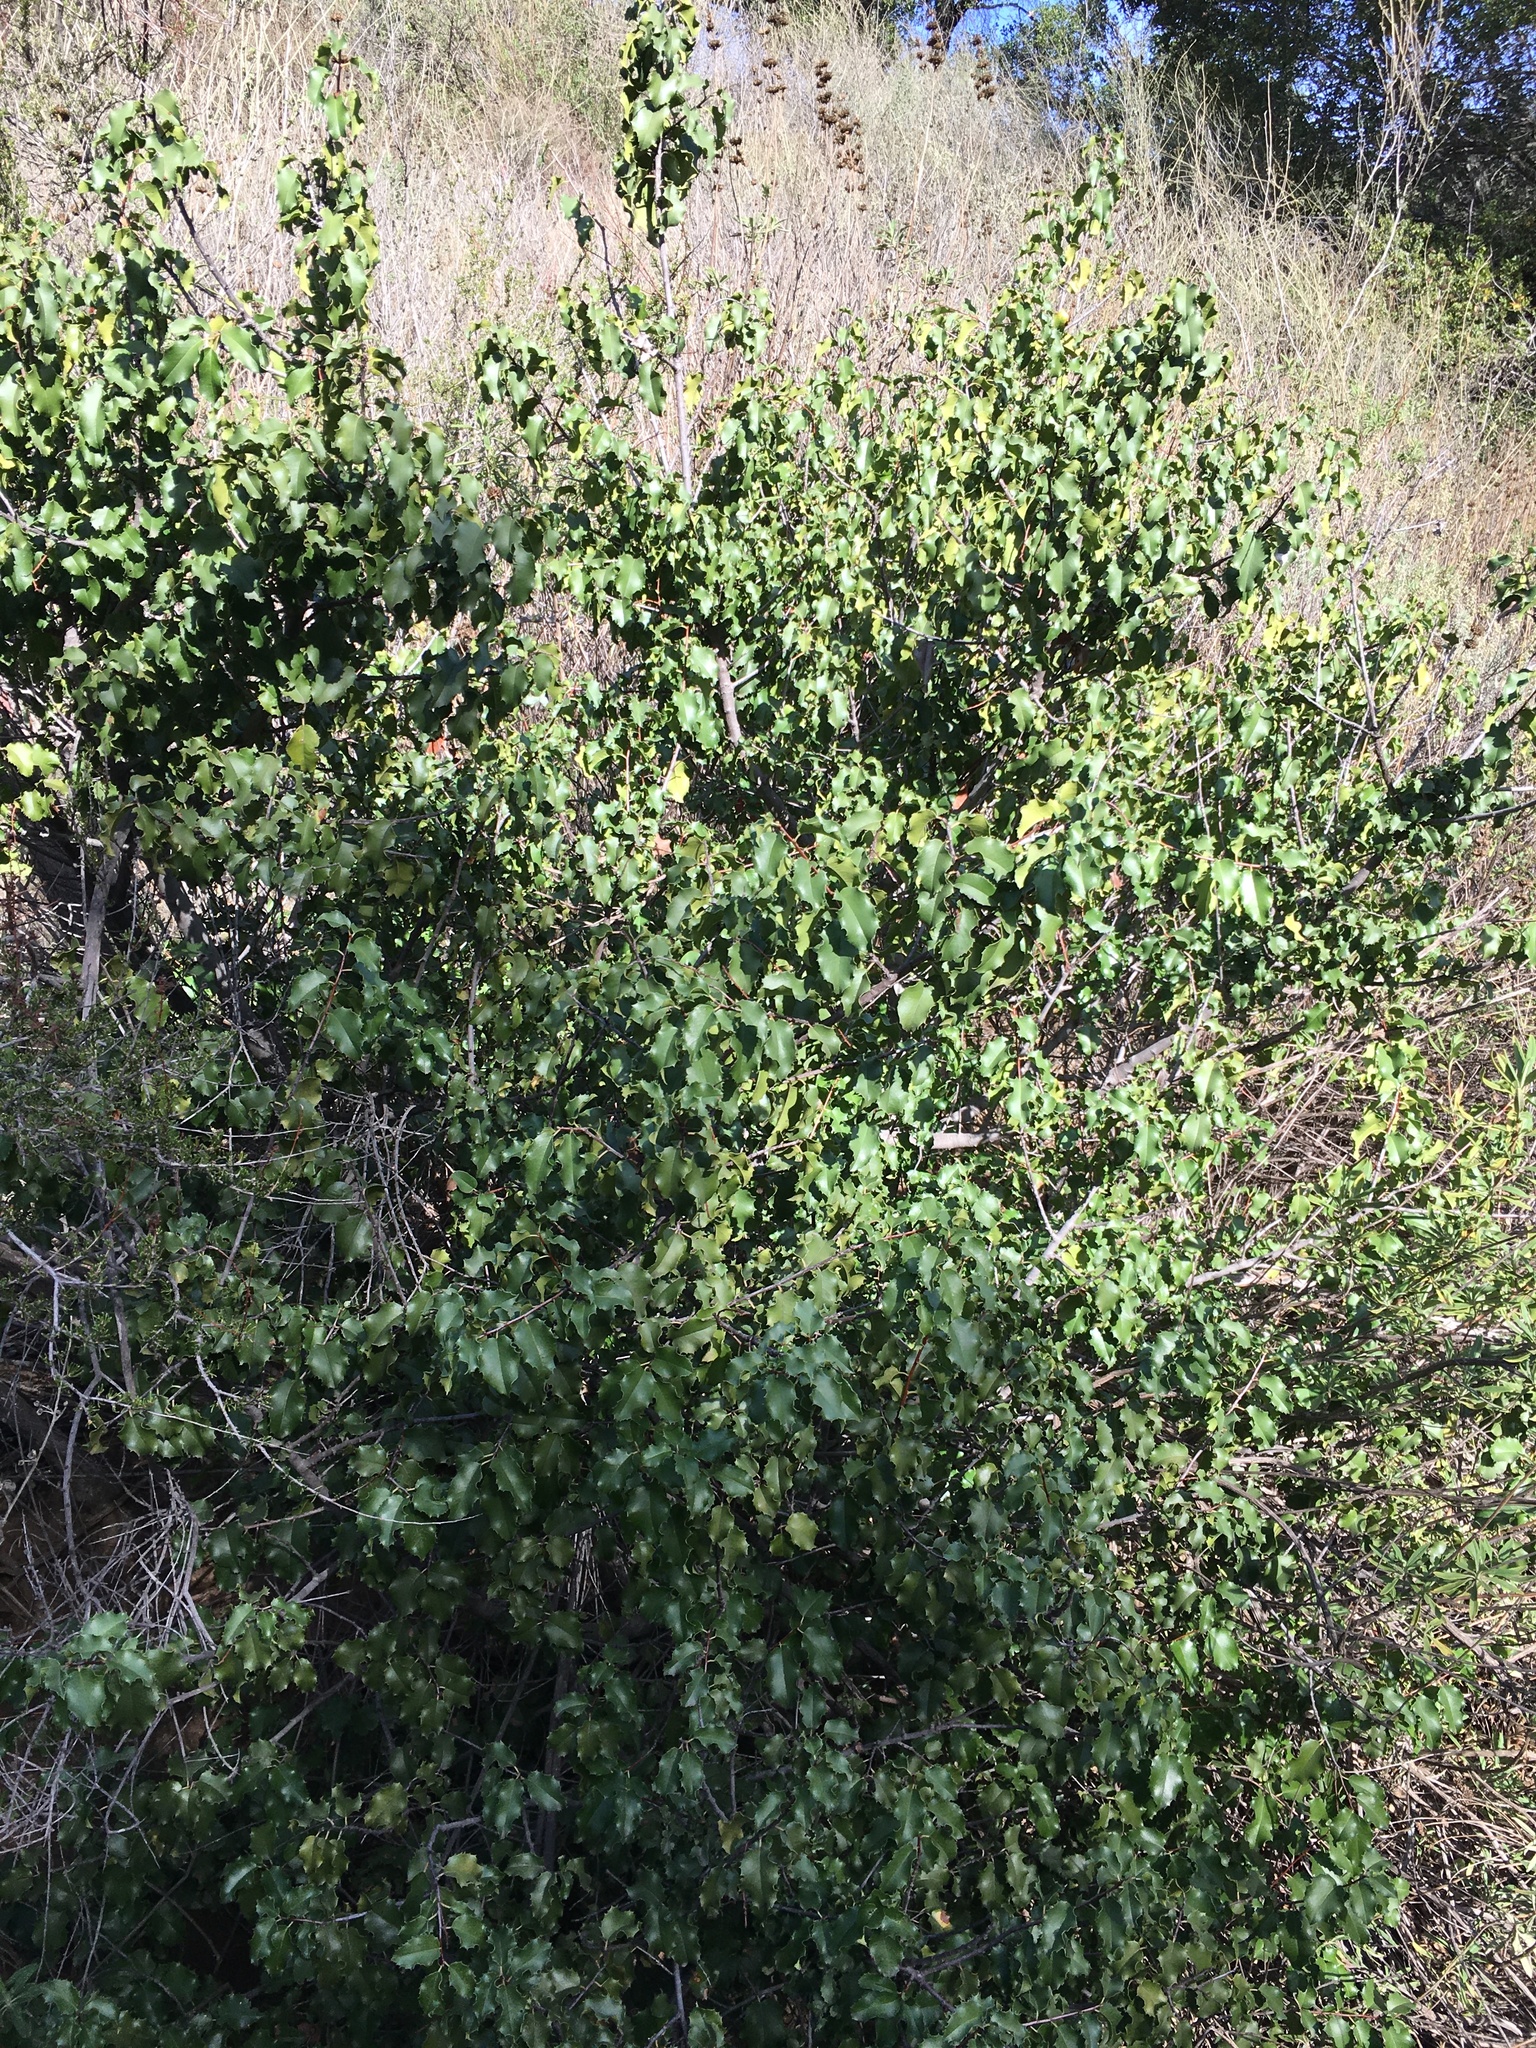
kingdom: Plantae
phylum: Tracheophyta
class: Magnoliopsida
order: Rosales
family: Rosaceae
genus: Prunus
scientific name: Prunus ilicifolia
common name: Hollyleaf cherry
